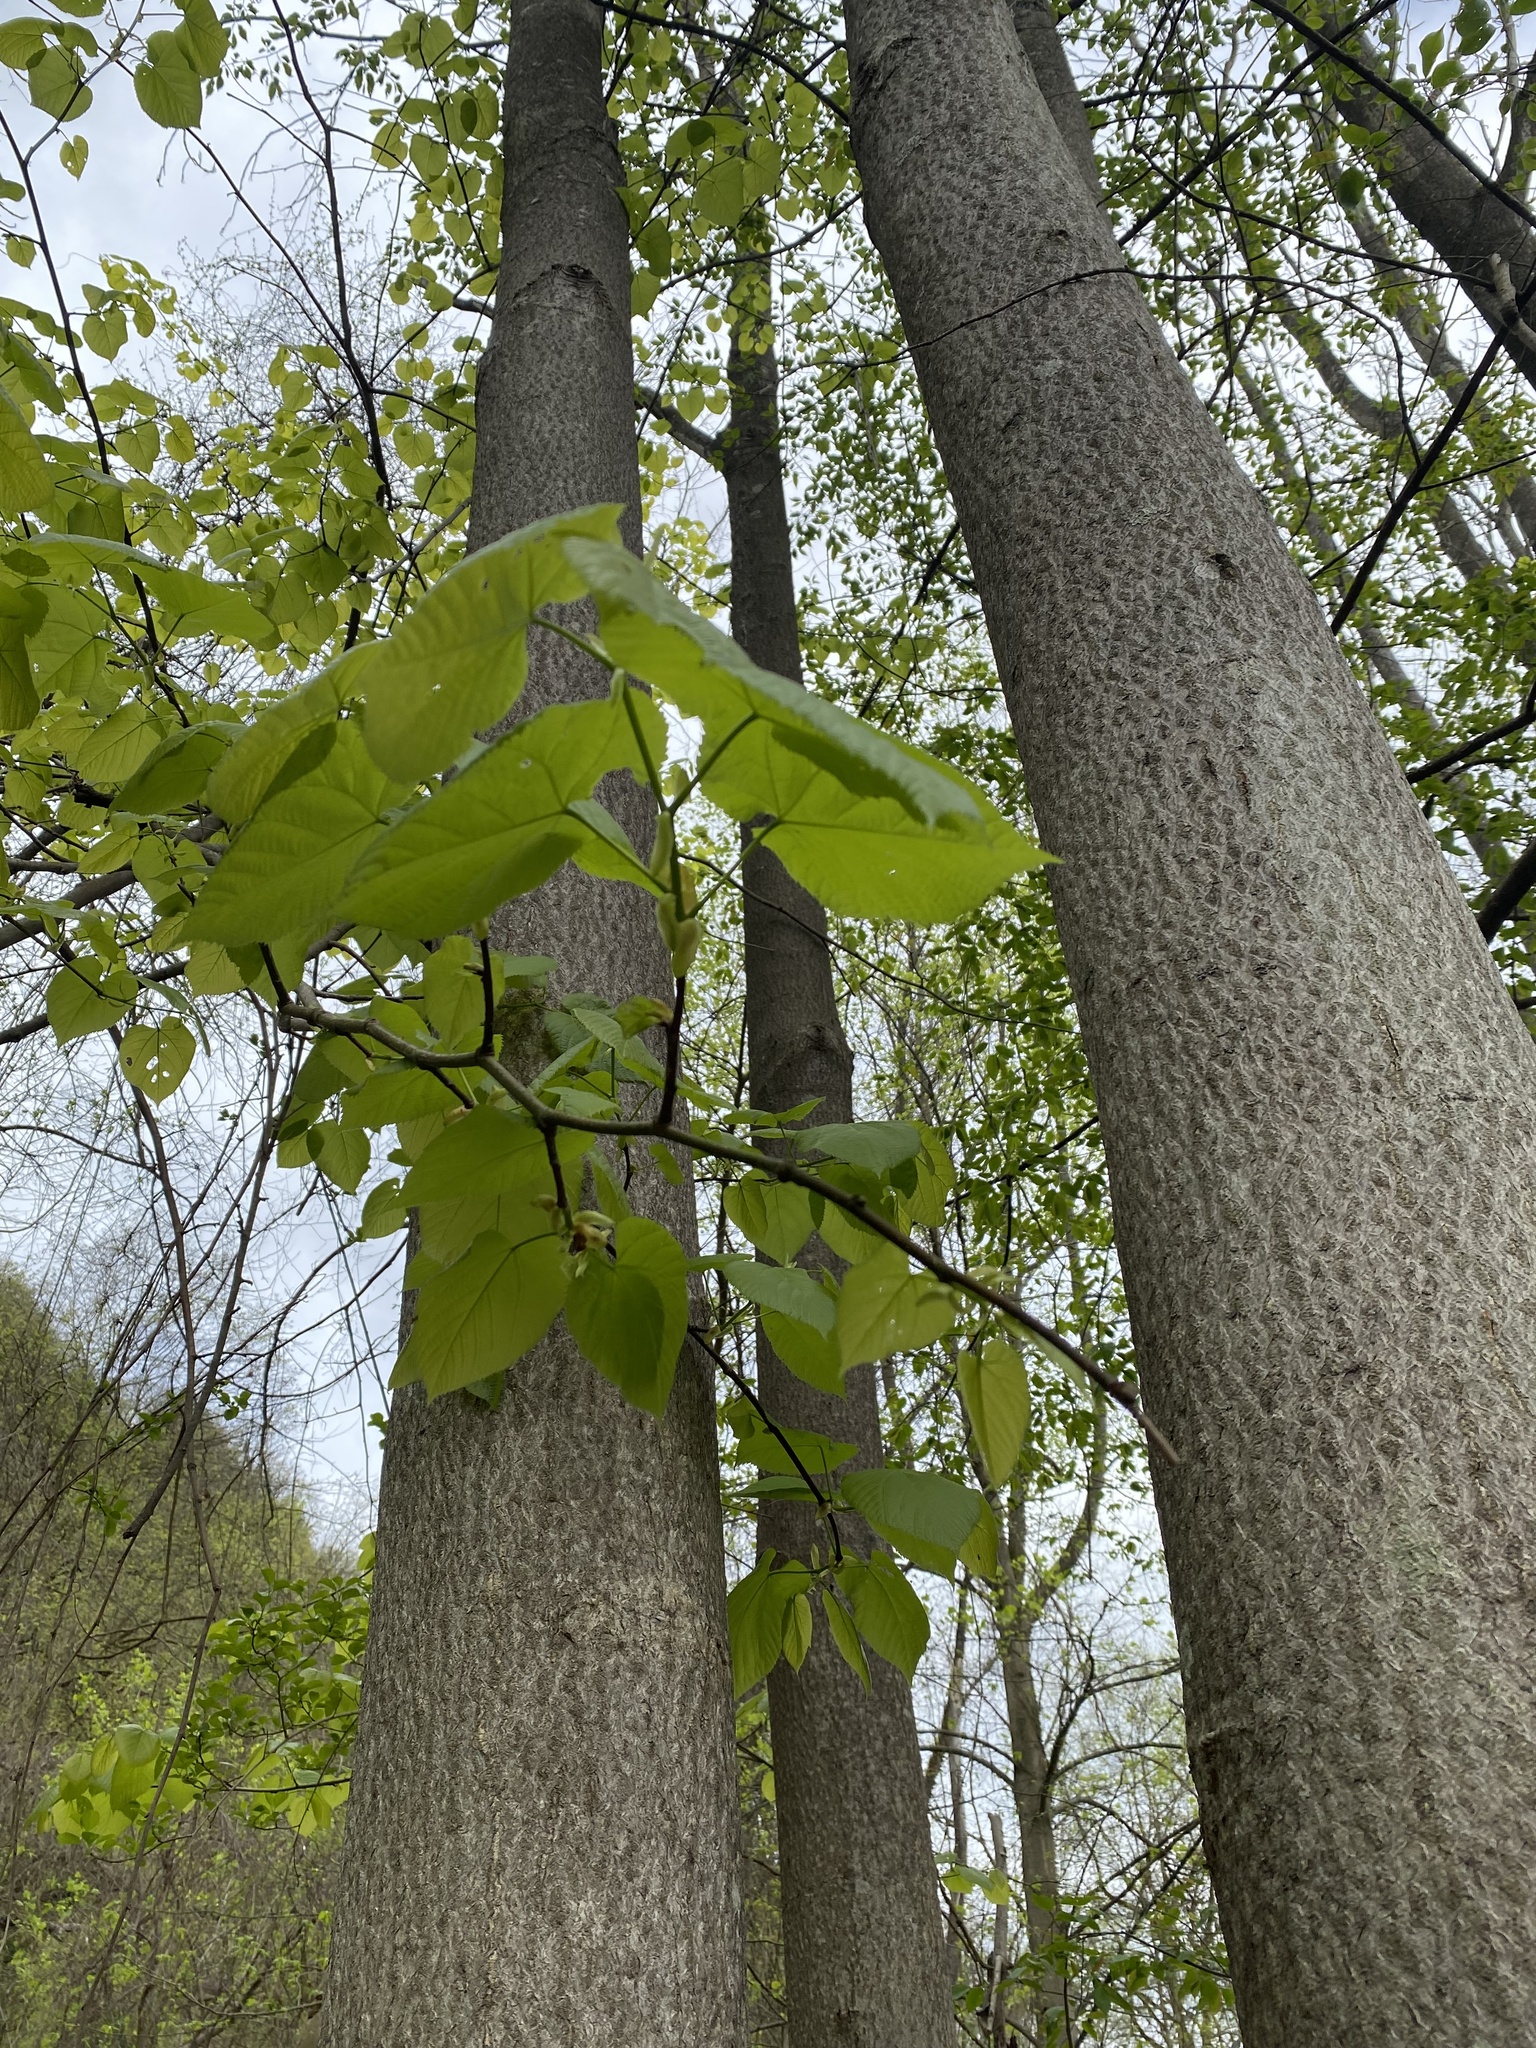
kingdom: Plantae
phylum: Tracheophyta
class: Magnoliopsida
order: Malvales
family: Malvaceae
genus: Tilia
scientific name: Tilia americana
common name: Basswood
